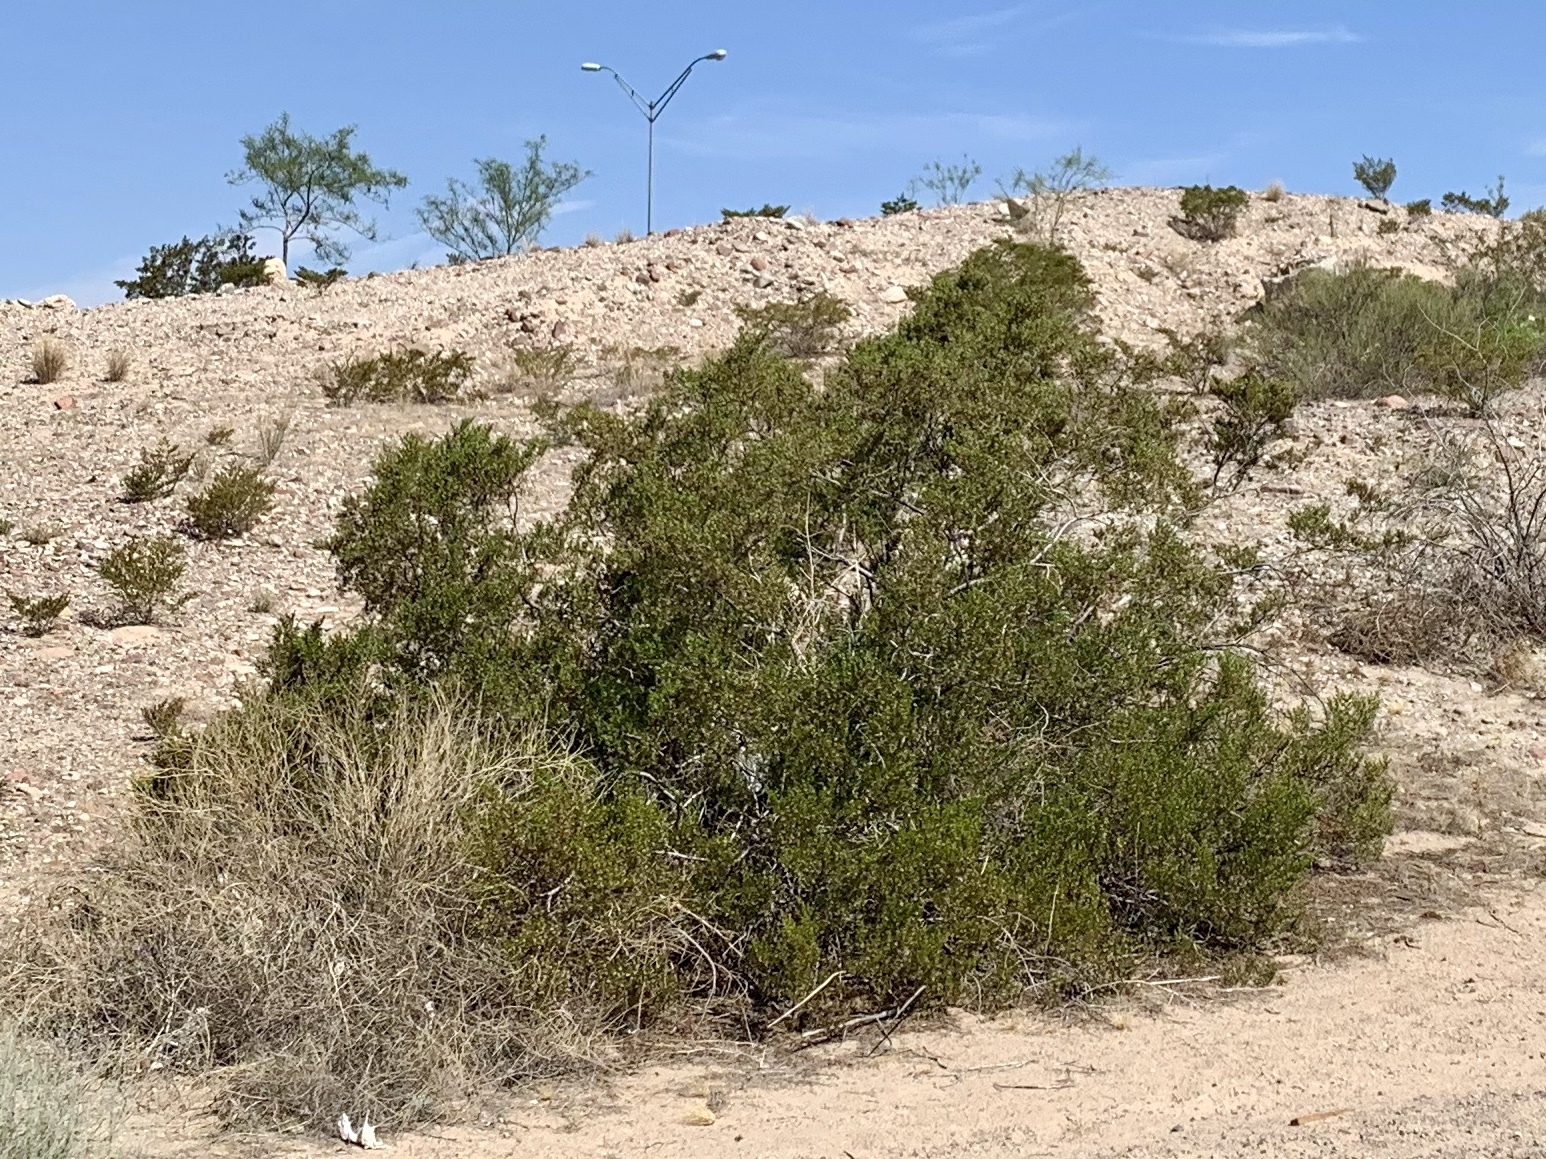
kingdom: Plantae
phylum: Tracheophyta
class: Magnoliopsida
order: Zygophyllales
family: Zygophyllaceae
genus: Larrea
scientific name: Larrea tridentata
